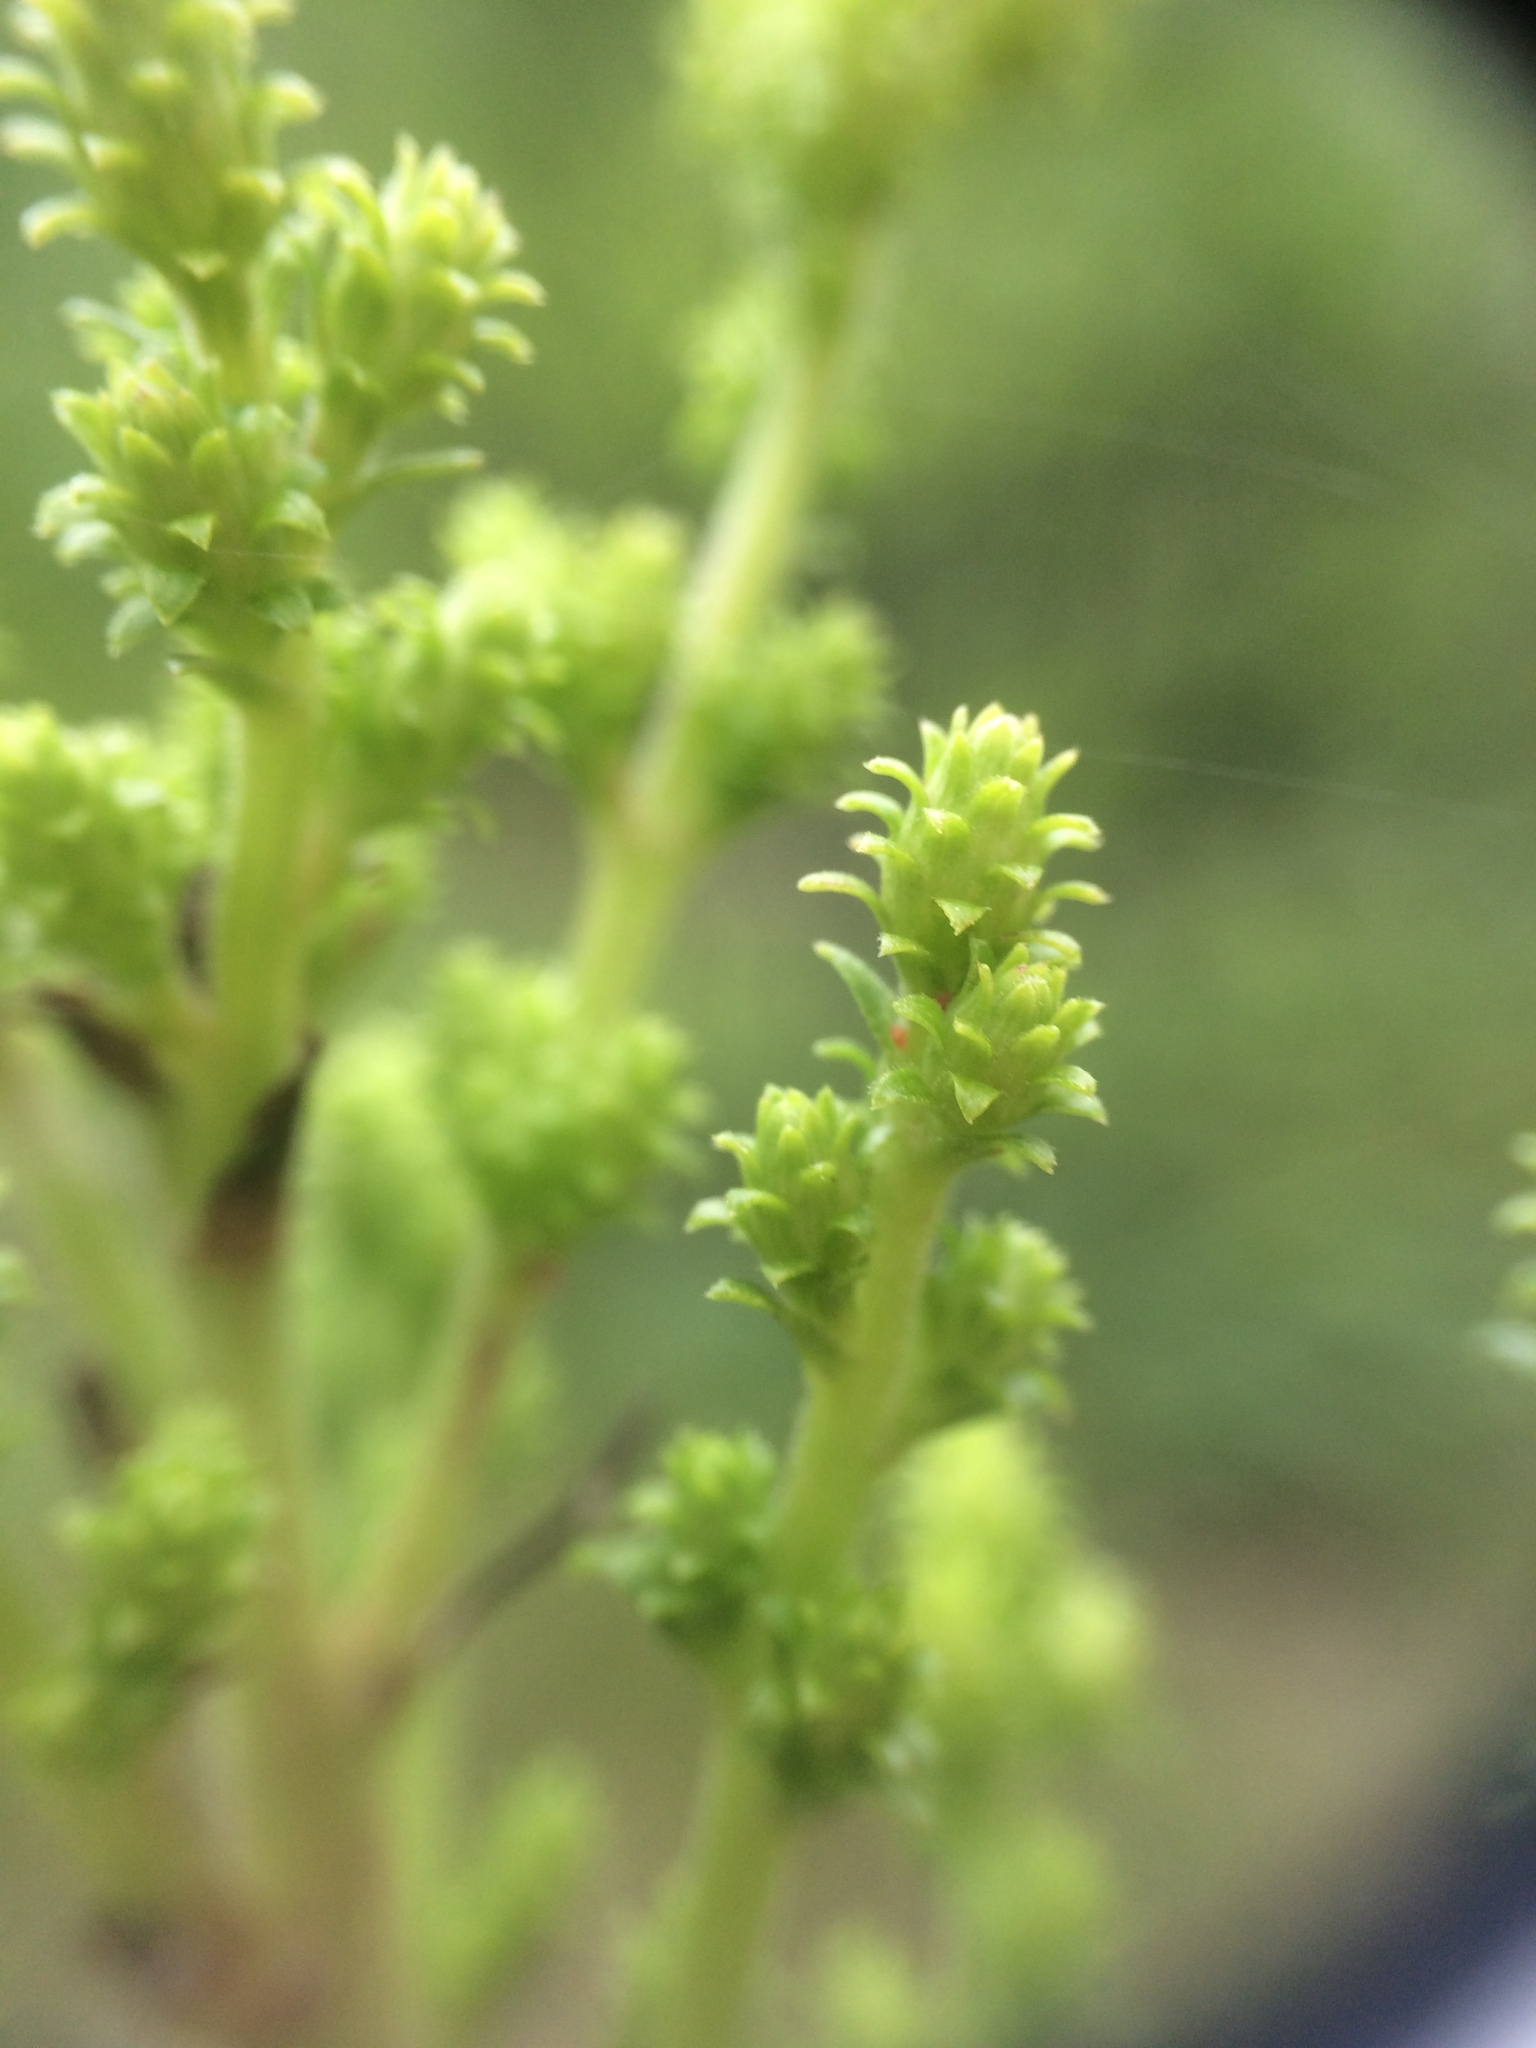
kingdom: Plantae
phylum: Tracheophyta
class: Magnoliopsida
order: Asterales
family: Asteraceae
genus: Solidago
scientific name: Solidago squarrosa
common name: Stout goldenrod
